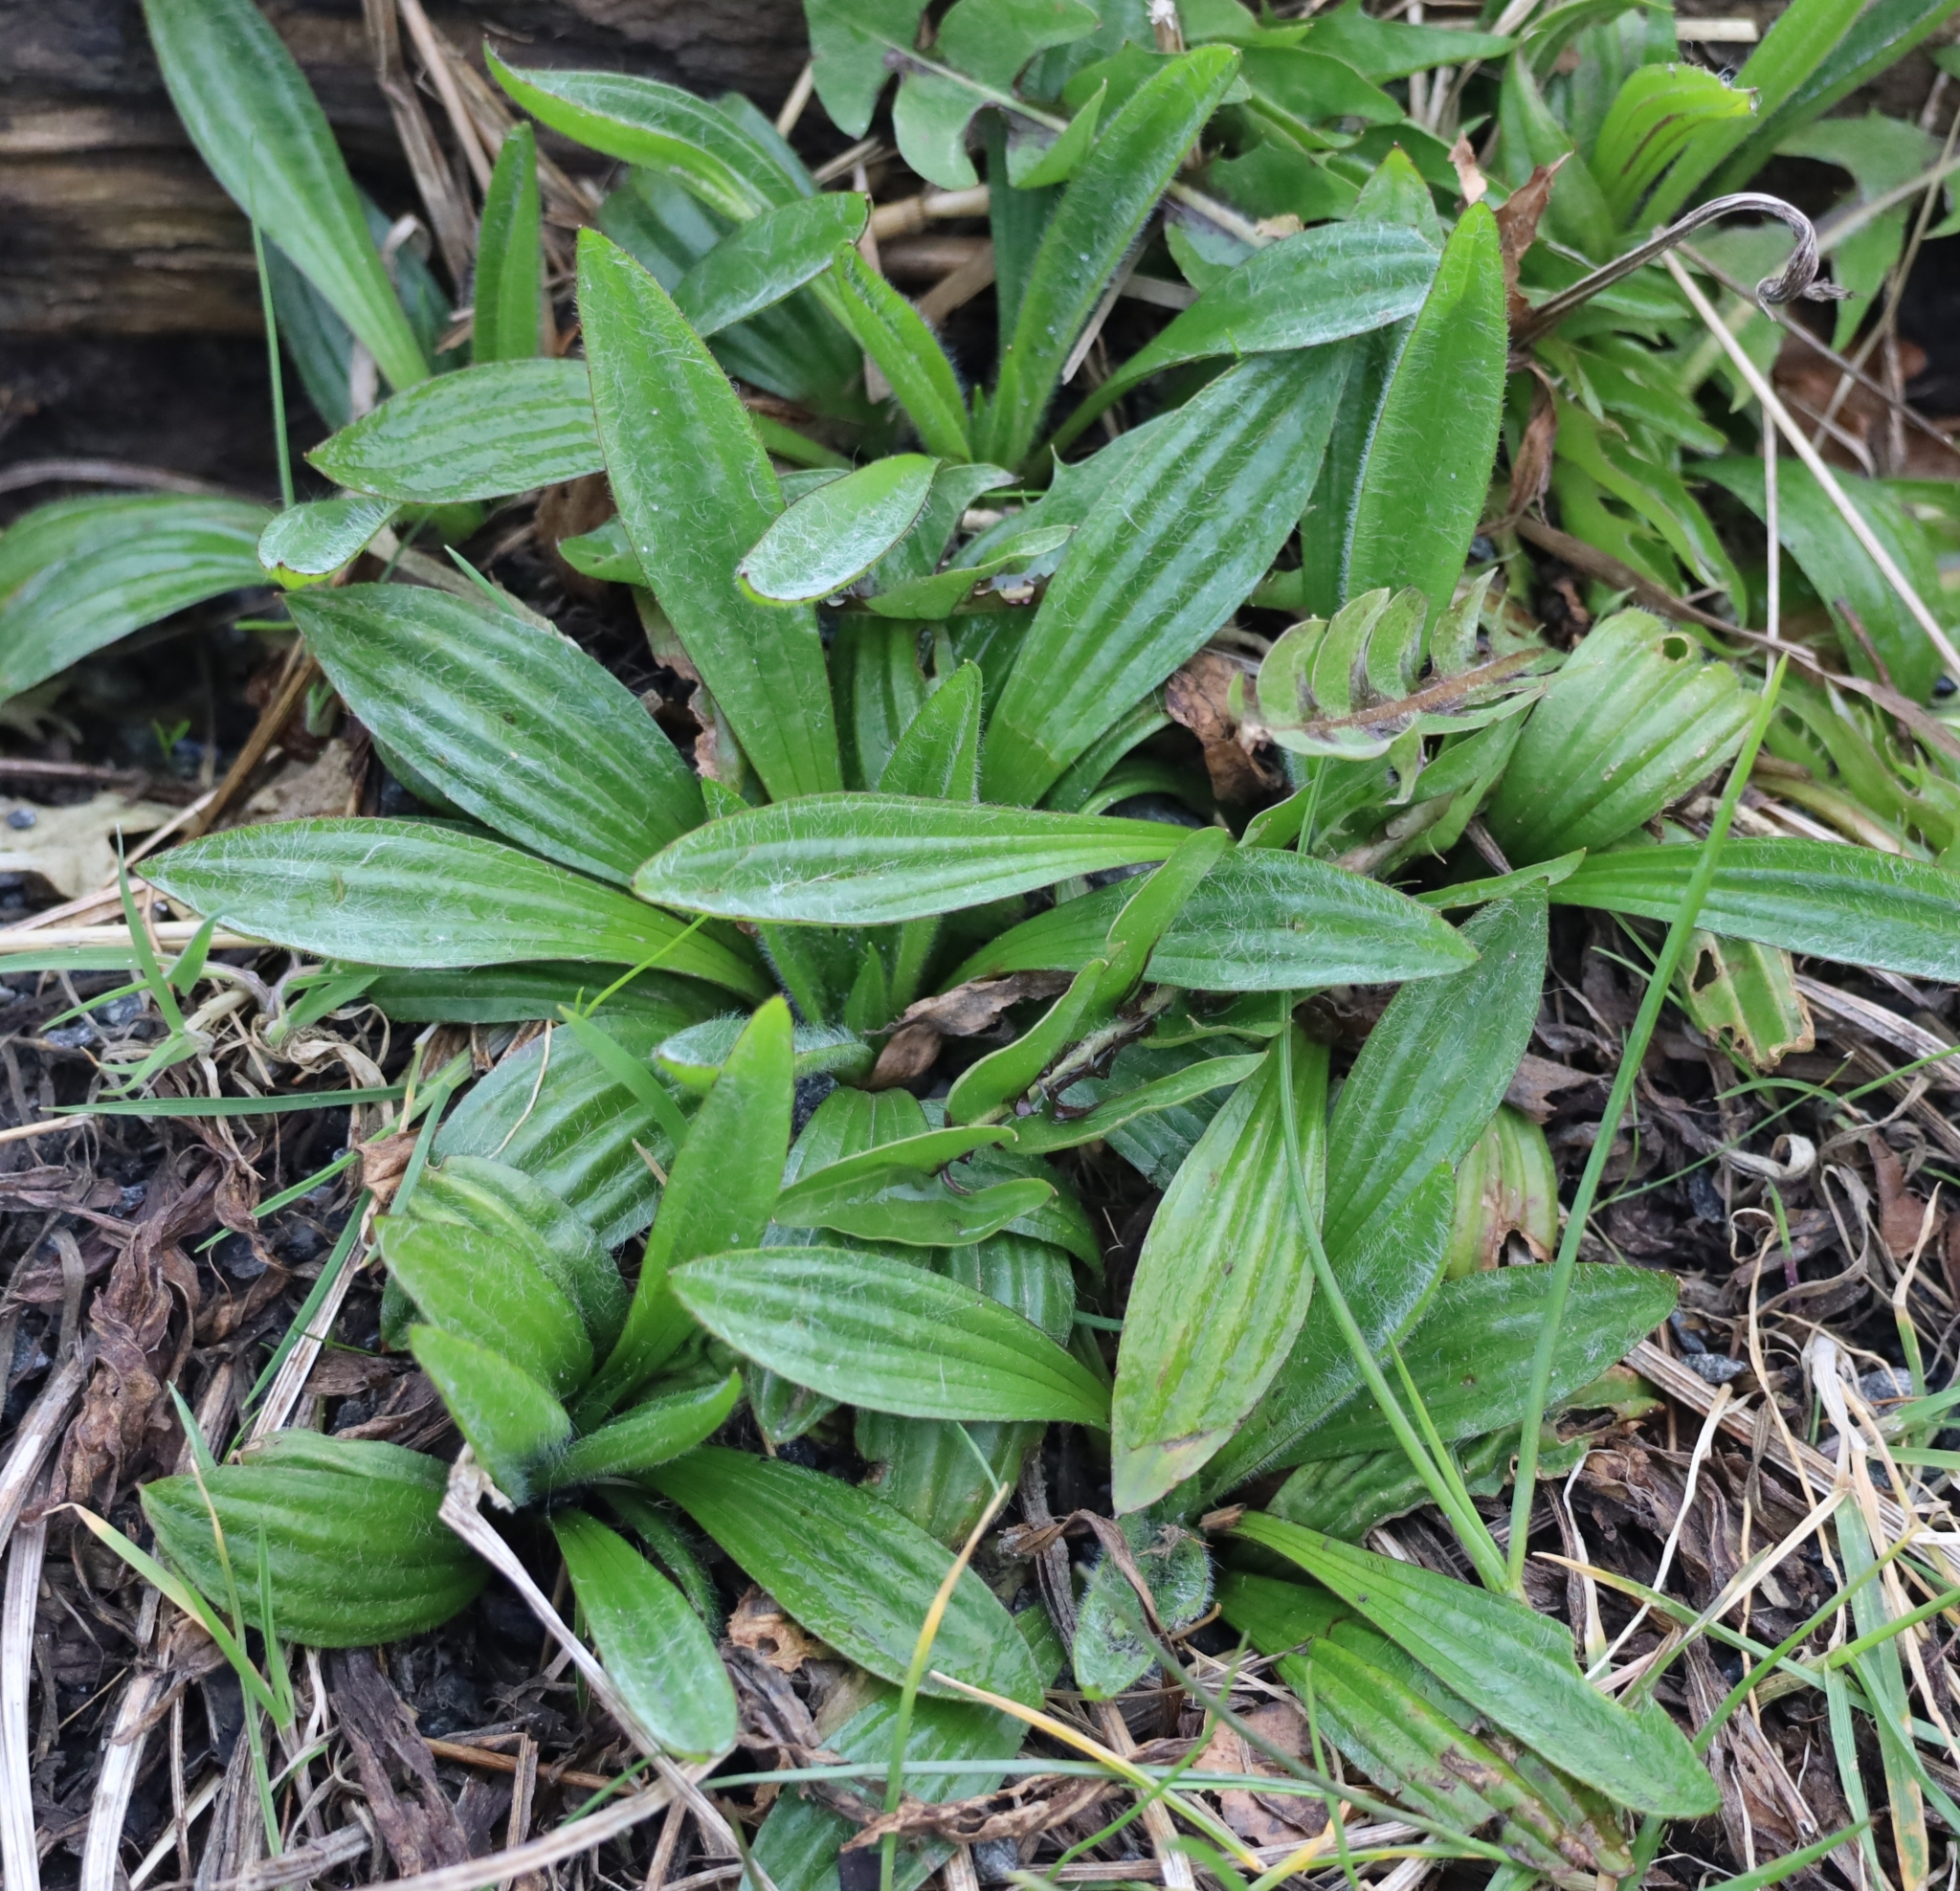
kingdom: Plantae
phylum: Tracheophyta
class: Magnoliopsida
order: Lamiales
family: Plantaginaceae
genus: Plantago
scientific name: Plantago lanceolata
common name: Ribwort plantain
